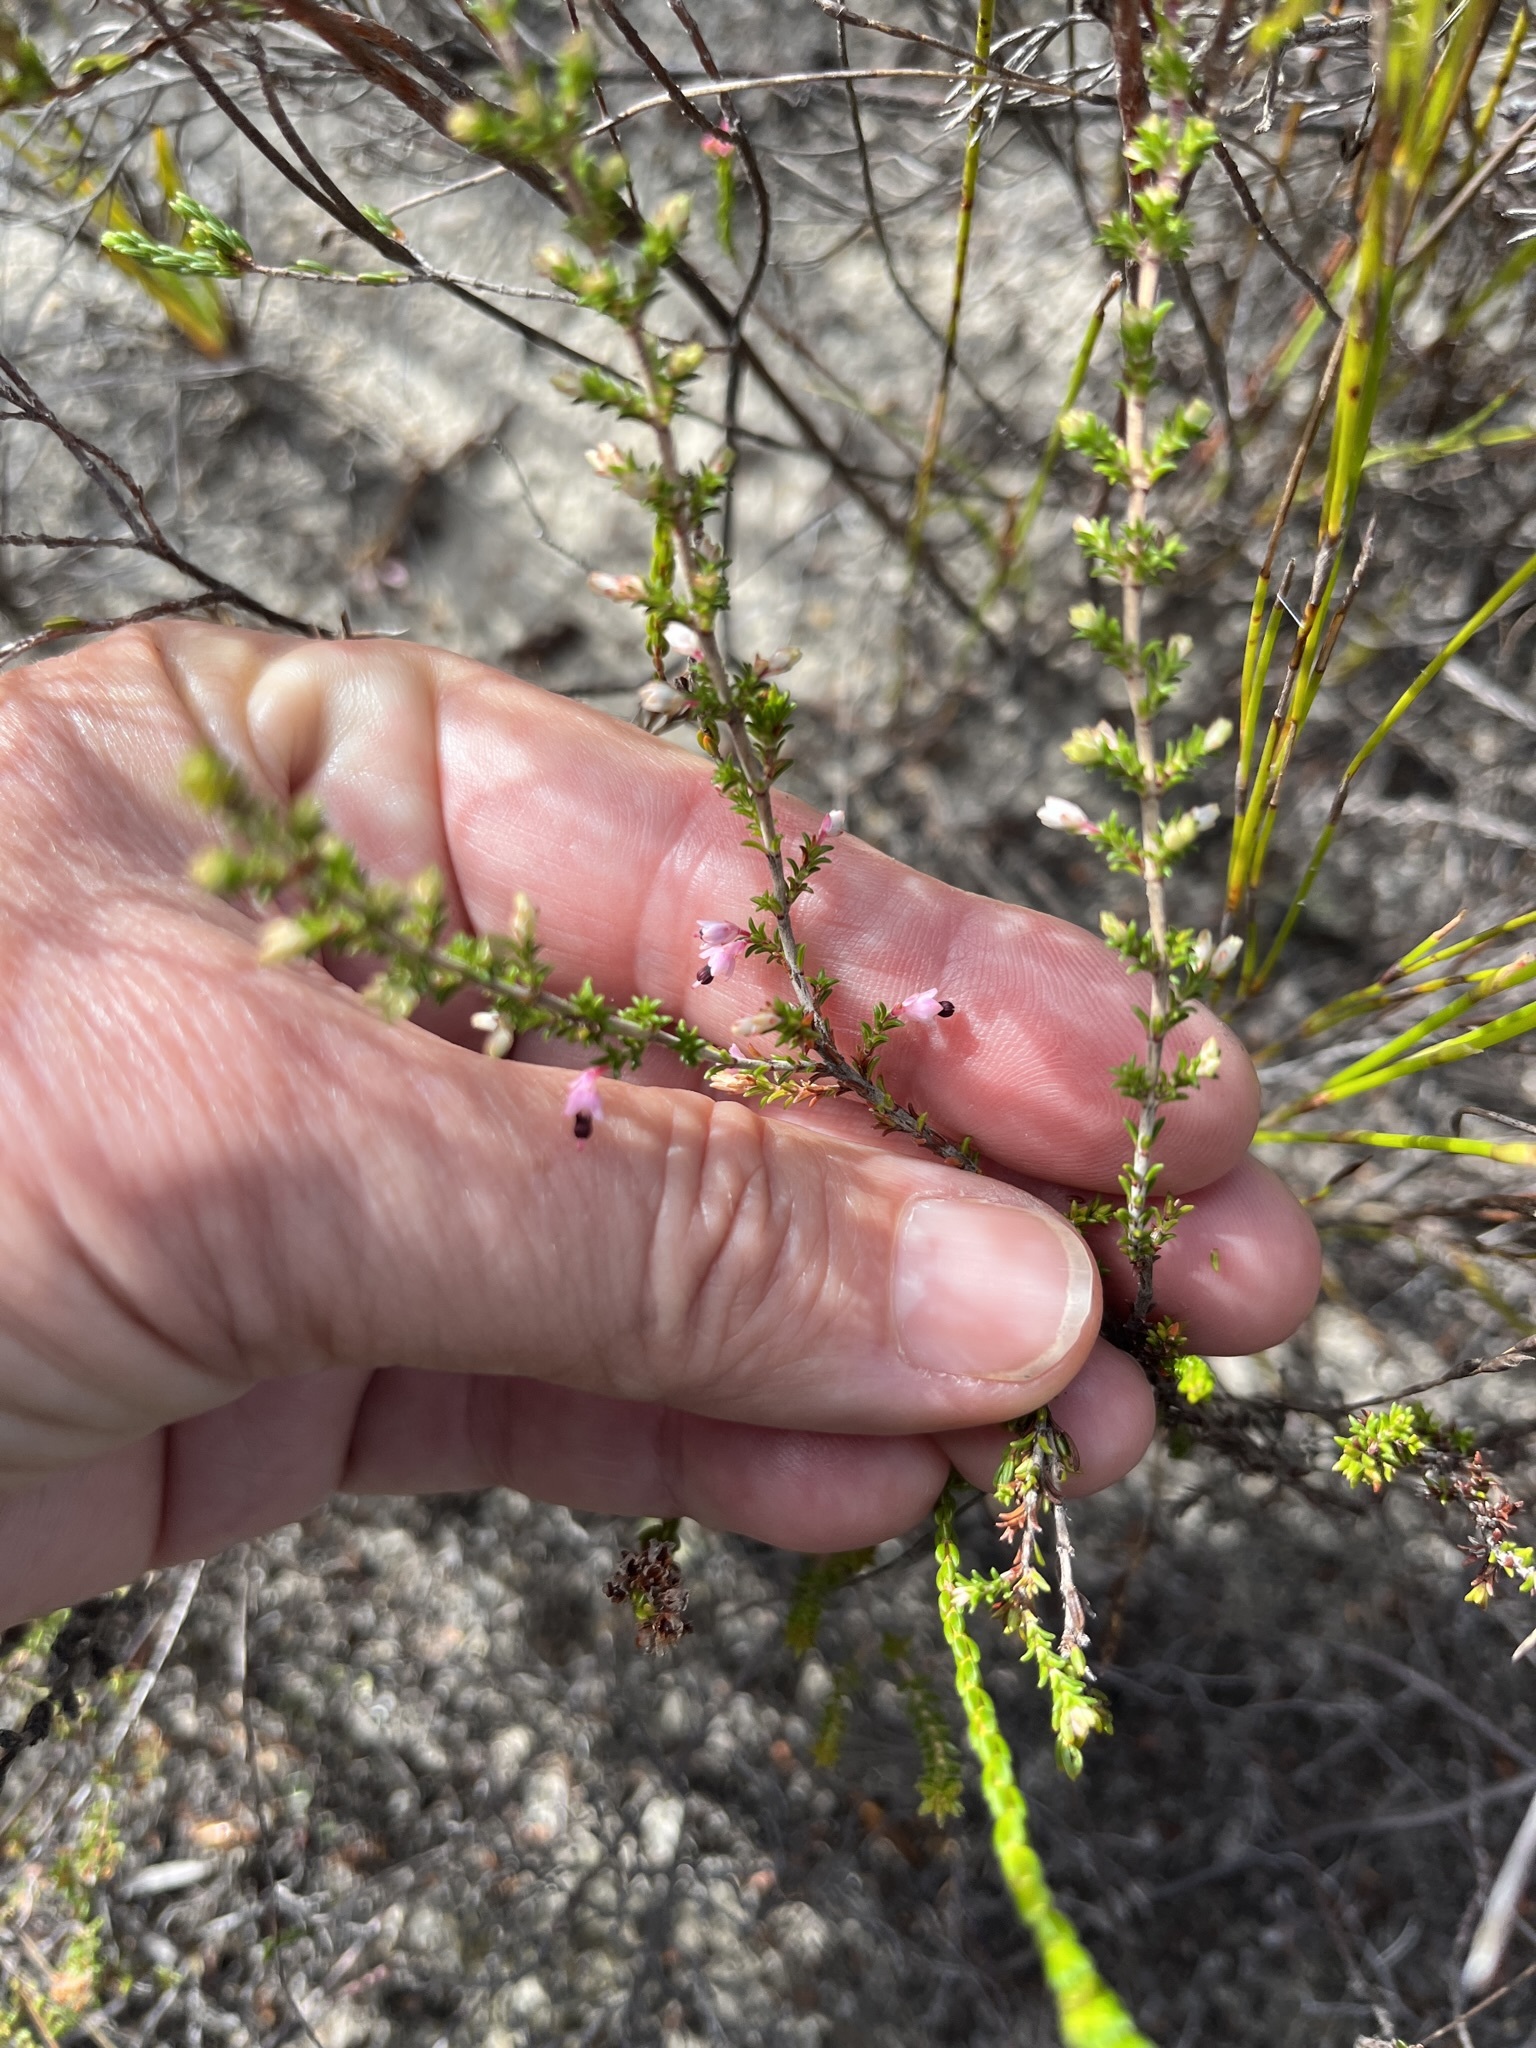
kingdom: Plantae
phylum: Tracheophyta
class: Magnoliopsida
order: Ericales
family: Ericaceae
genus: Erica
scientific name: Erica placentiflora
